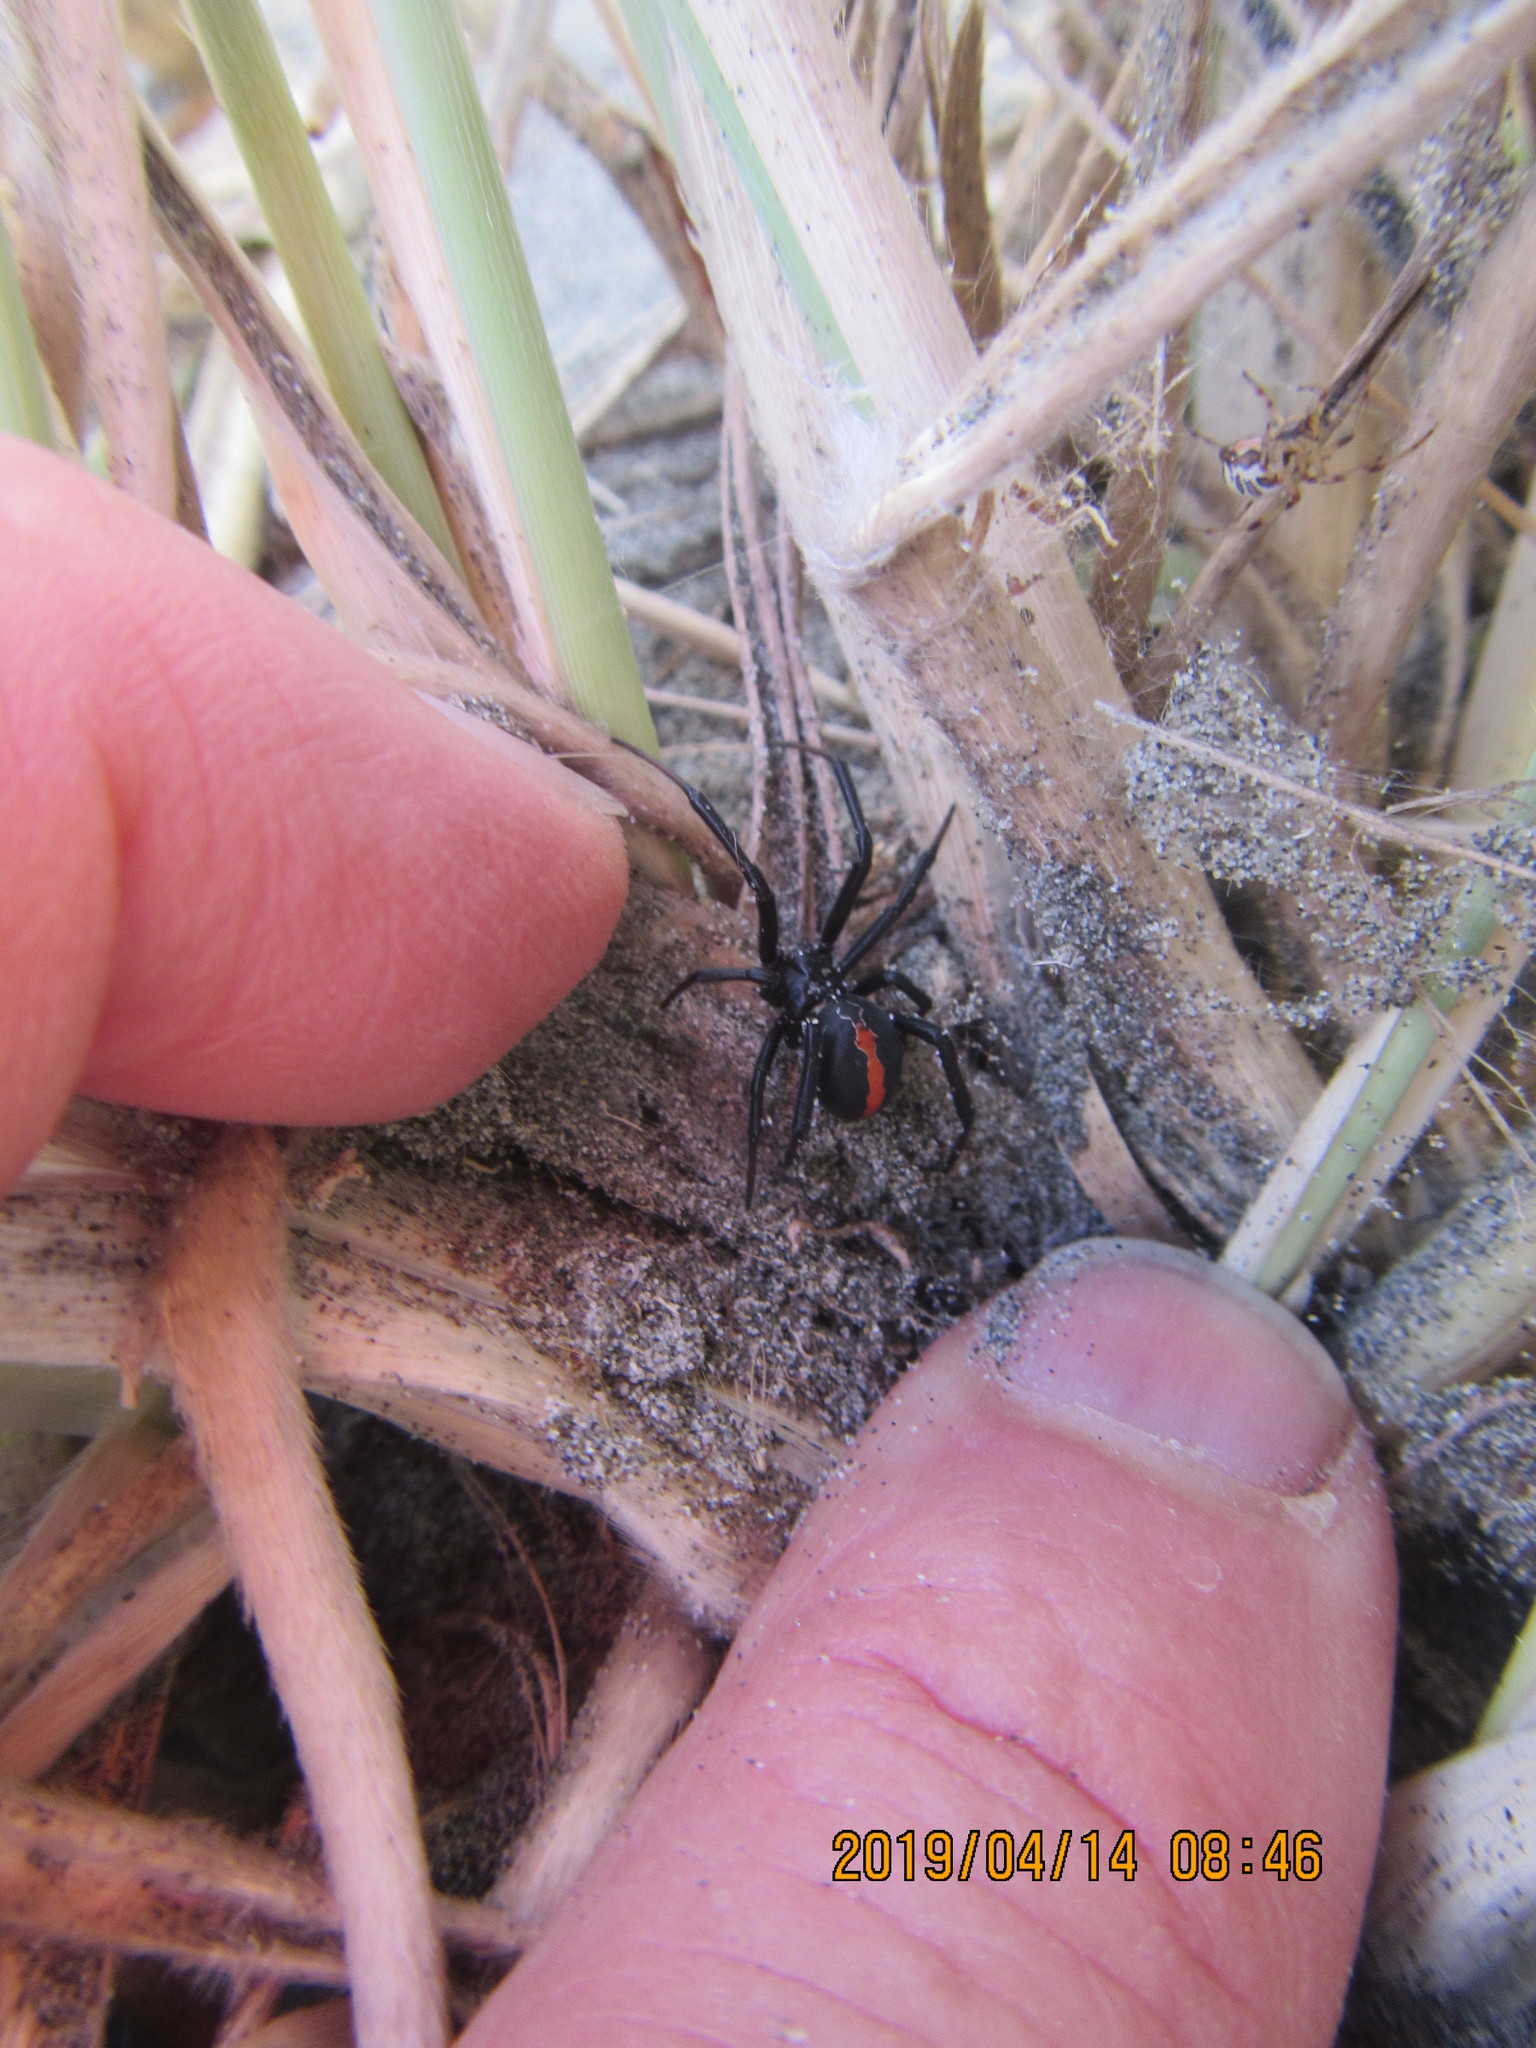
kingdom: Animalia
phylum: Arthropoda
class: Arachnida
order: Araneae
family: Theridiidae
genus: Latrodectus
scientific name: Latrodectus katipo
